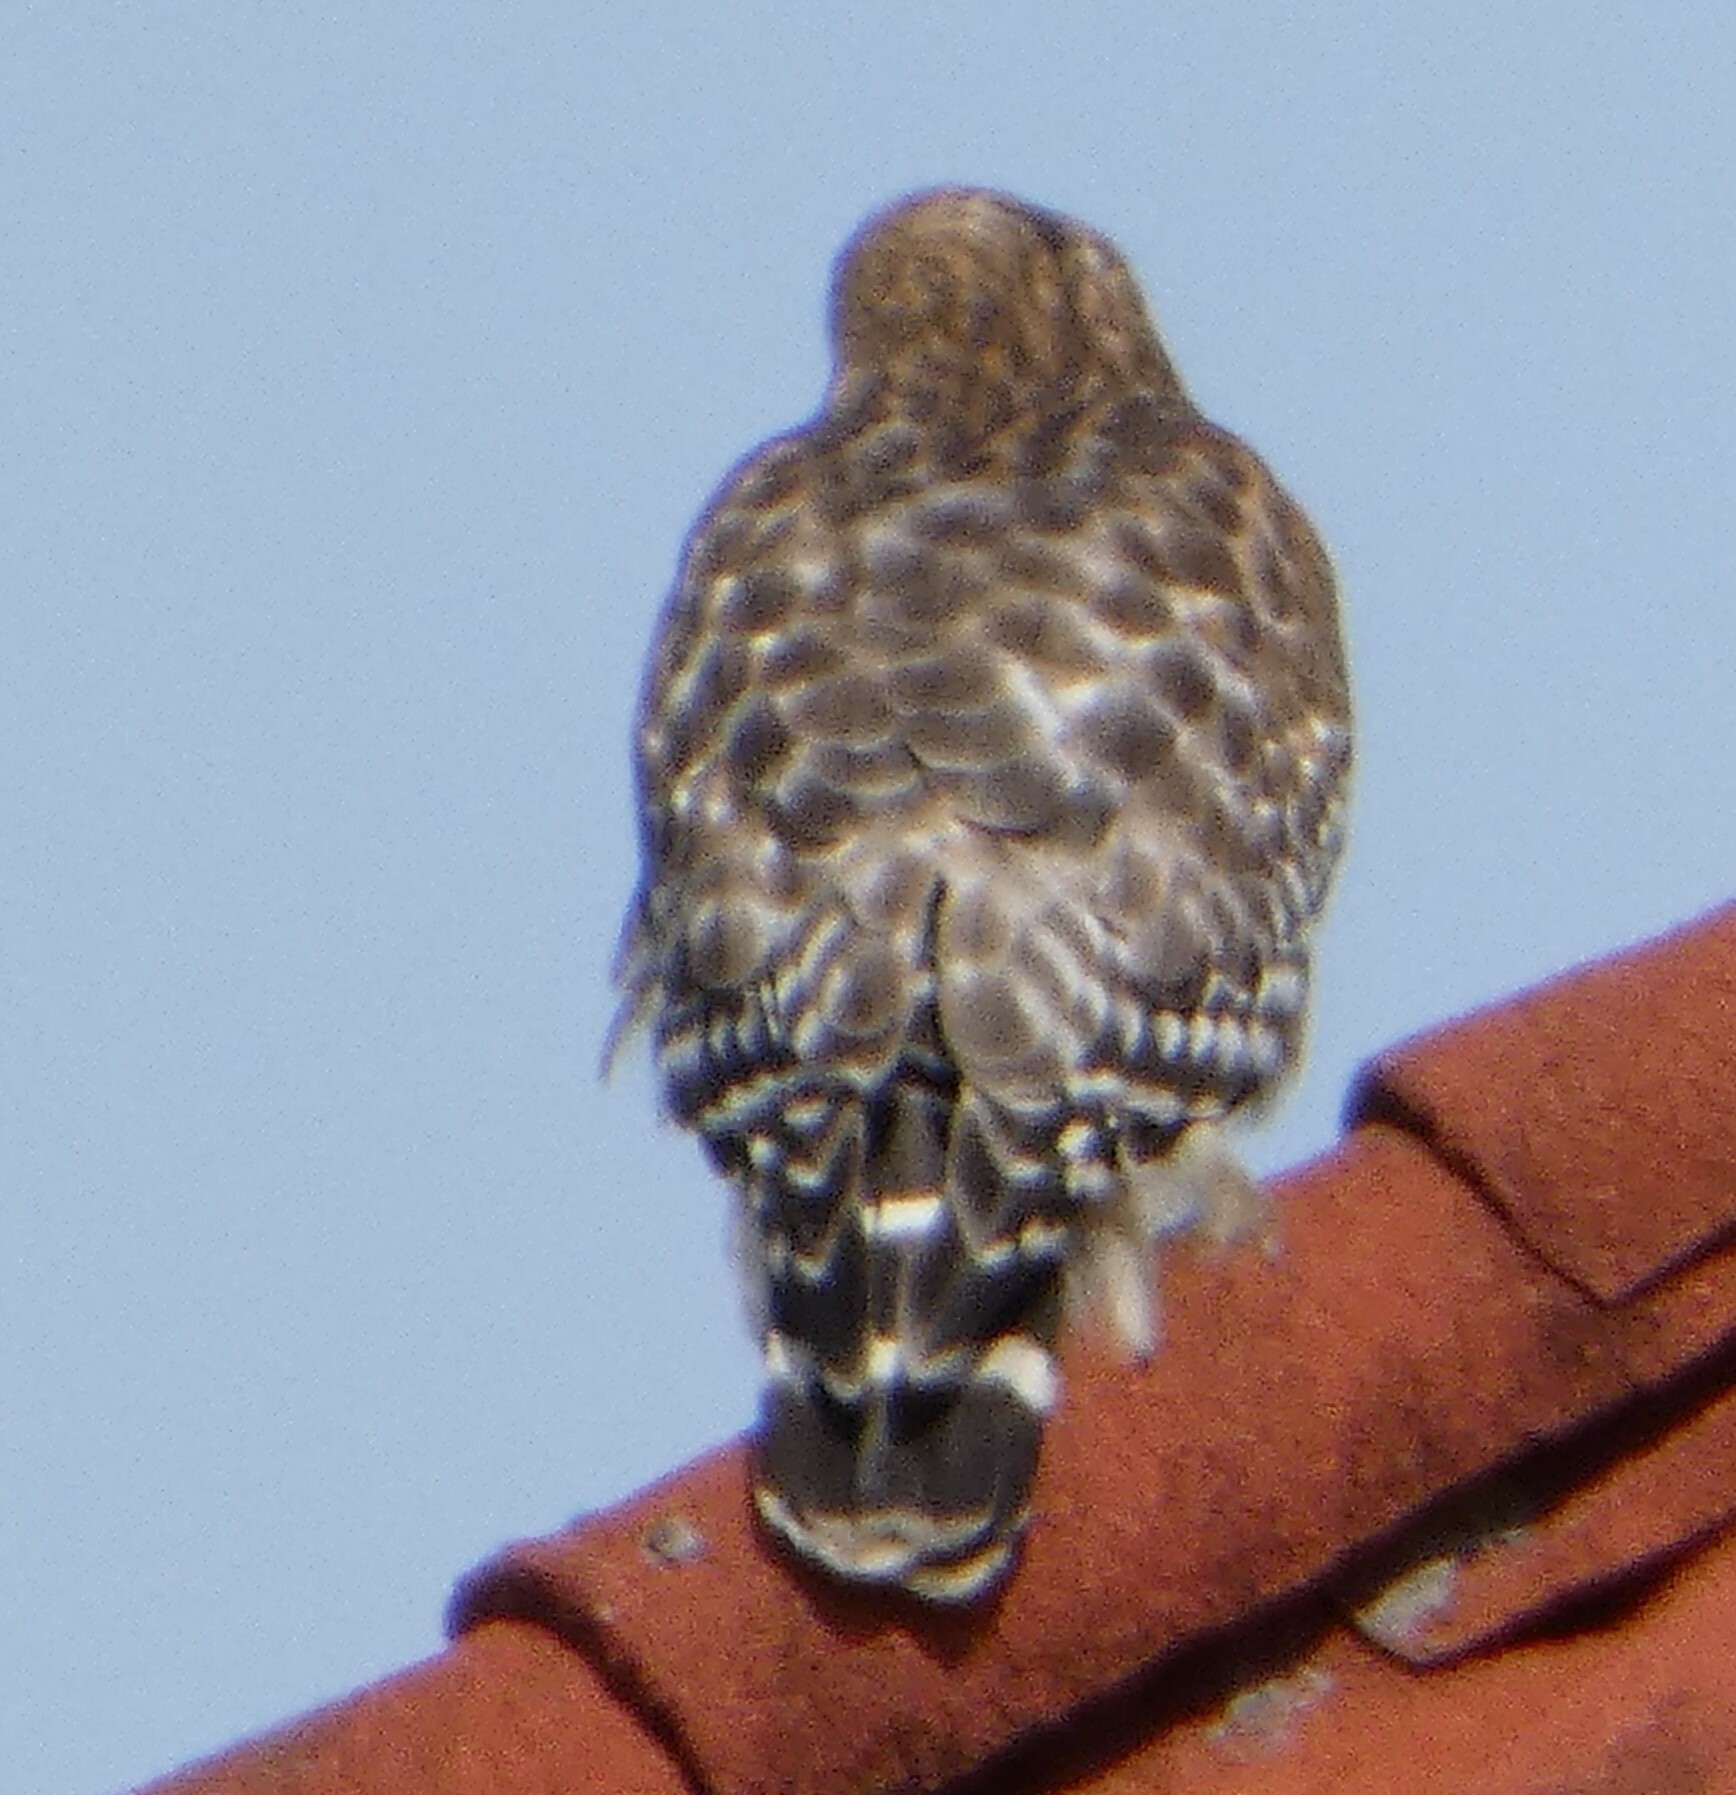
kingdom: Animalia
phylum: Chordata
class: Aves
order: Accipitriformes
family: Accipitridae
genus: Buteo
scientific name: Buteo lineatus
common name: Red-shouldered hawk
